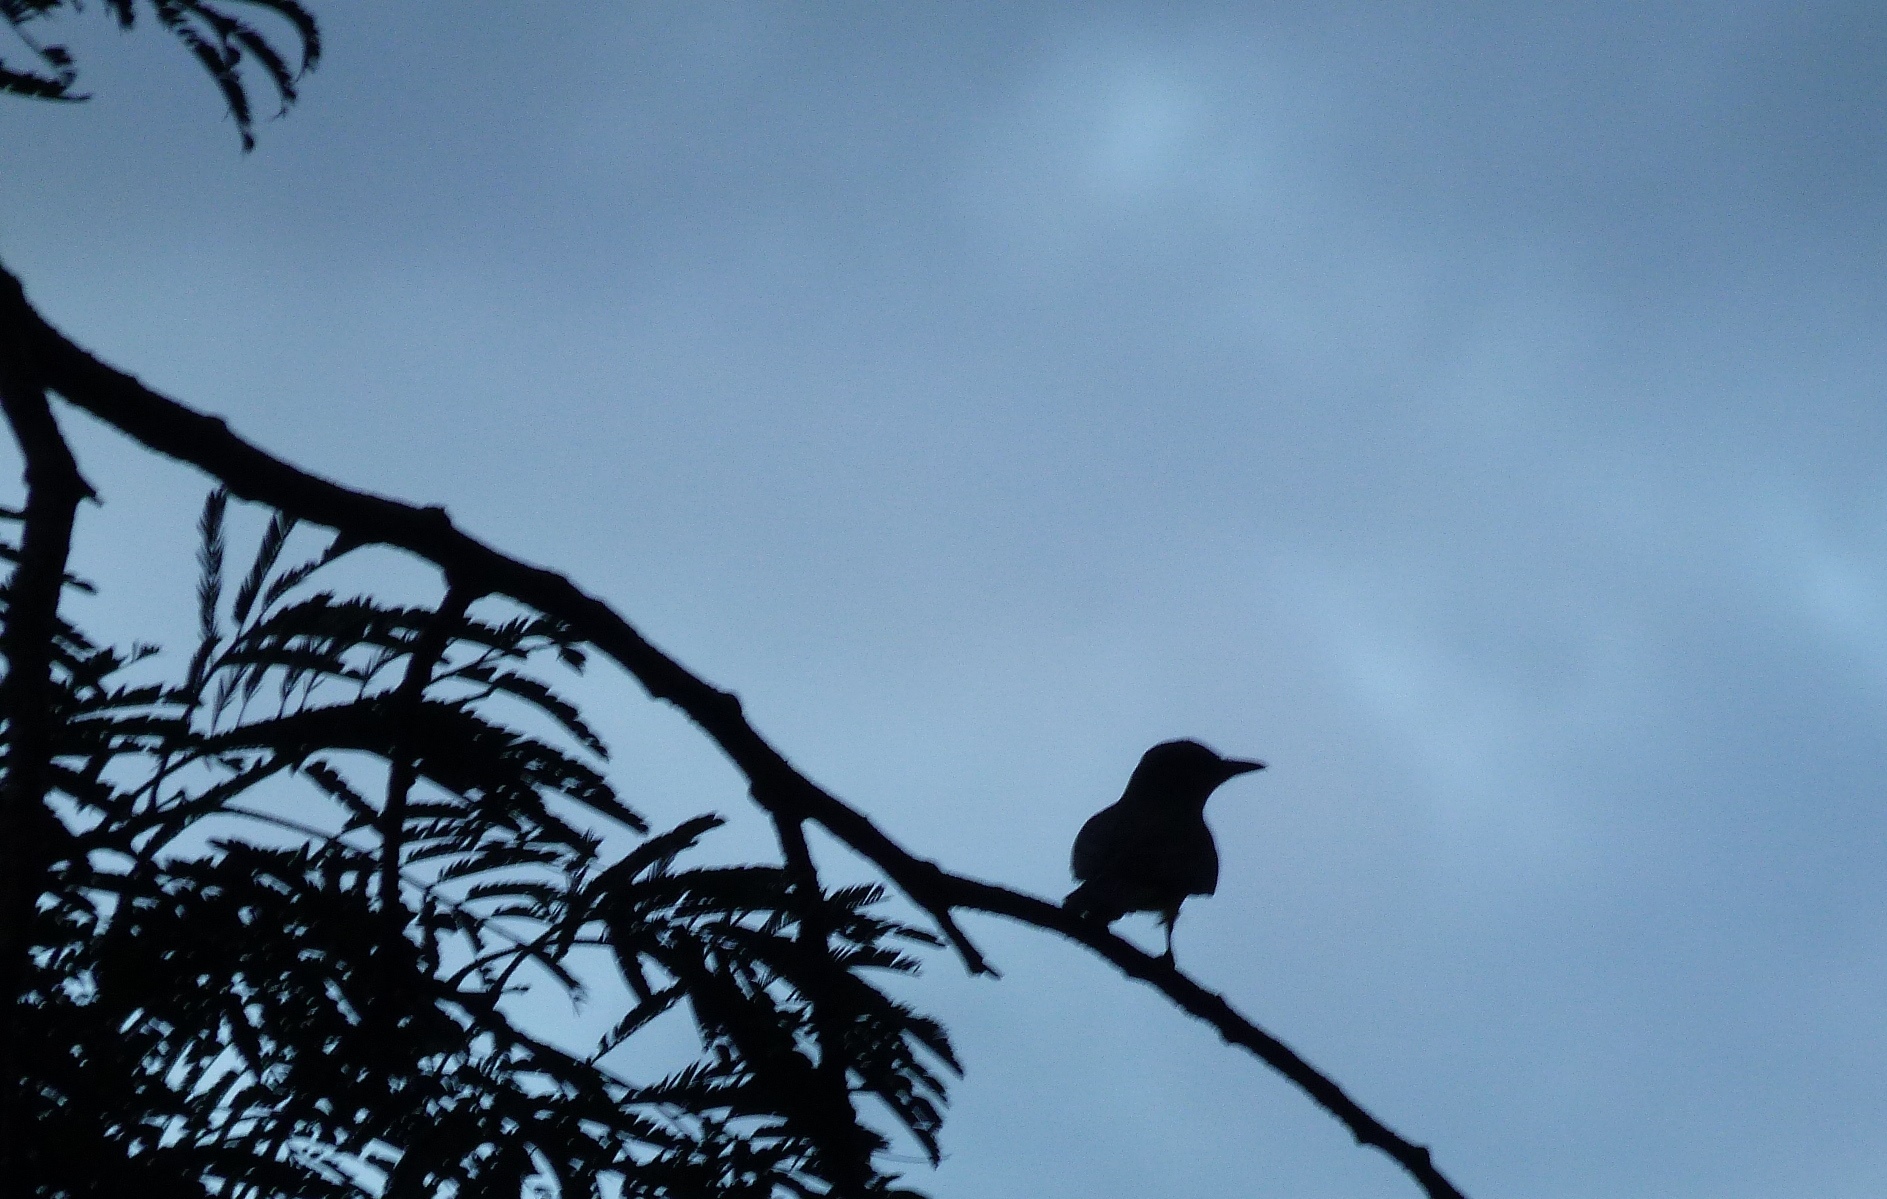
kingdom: Animalia
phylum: Chordata
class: Aves
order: Passeriformes
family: Mimidae
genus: Mimus
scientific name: Mimus gilvus
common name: Tropical mockingbird
